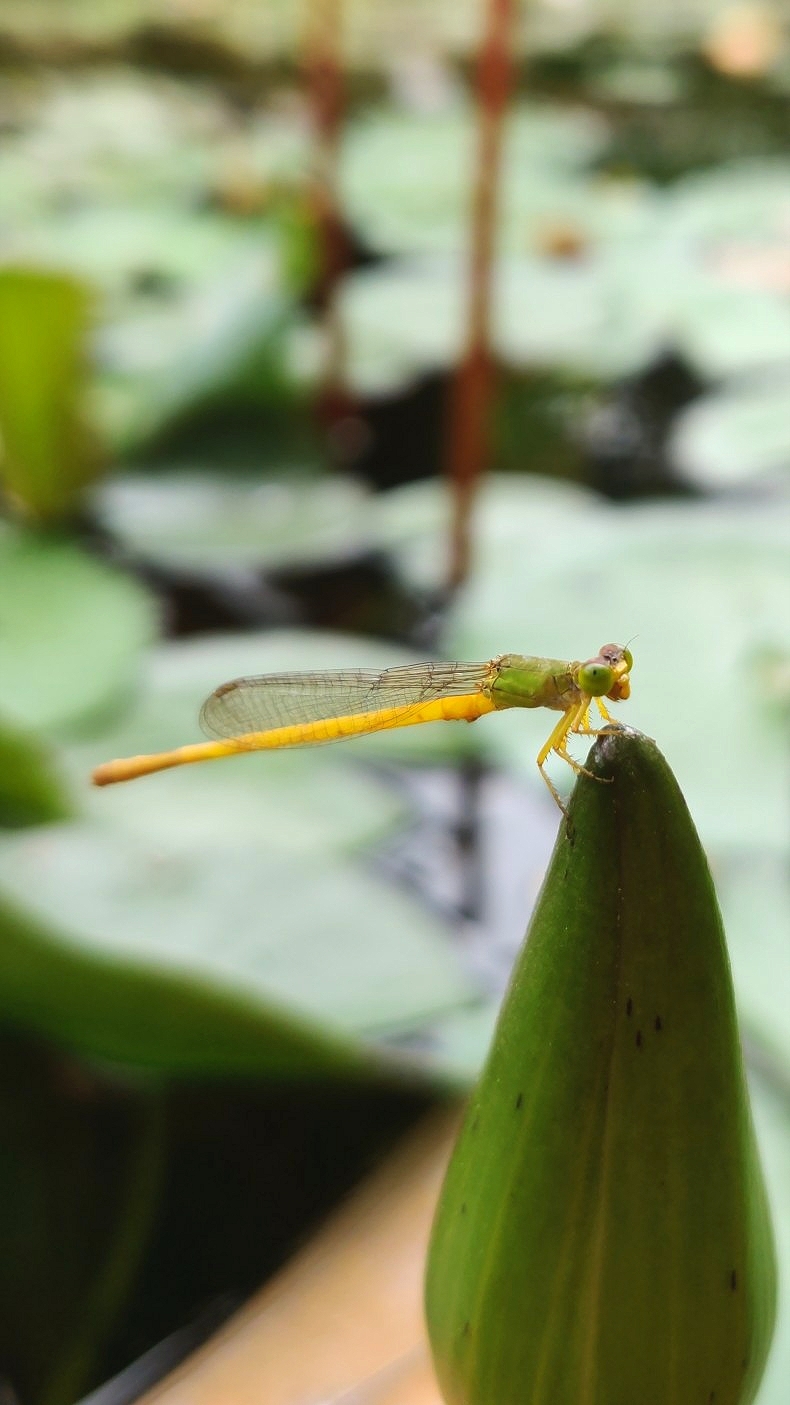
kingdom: Animalia
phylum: Arthropoda
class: Insecta
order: Odonata
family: Coenagrionidae
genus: Ceriagrion
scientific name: Ceriagrion coromandelianum
